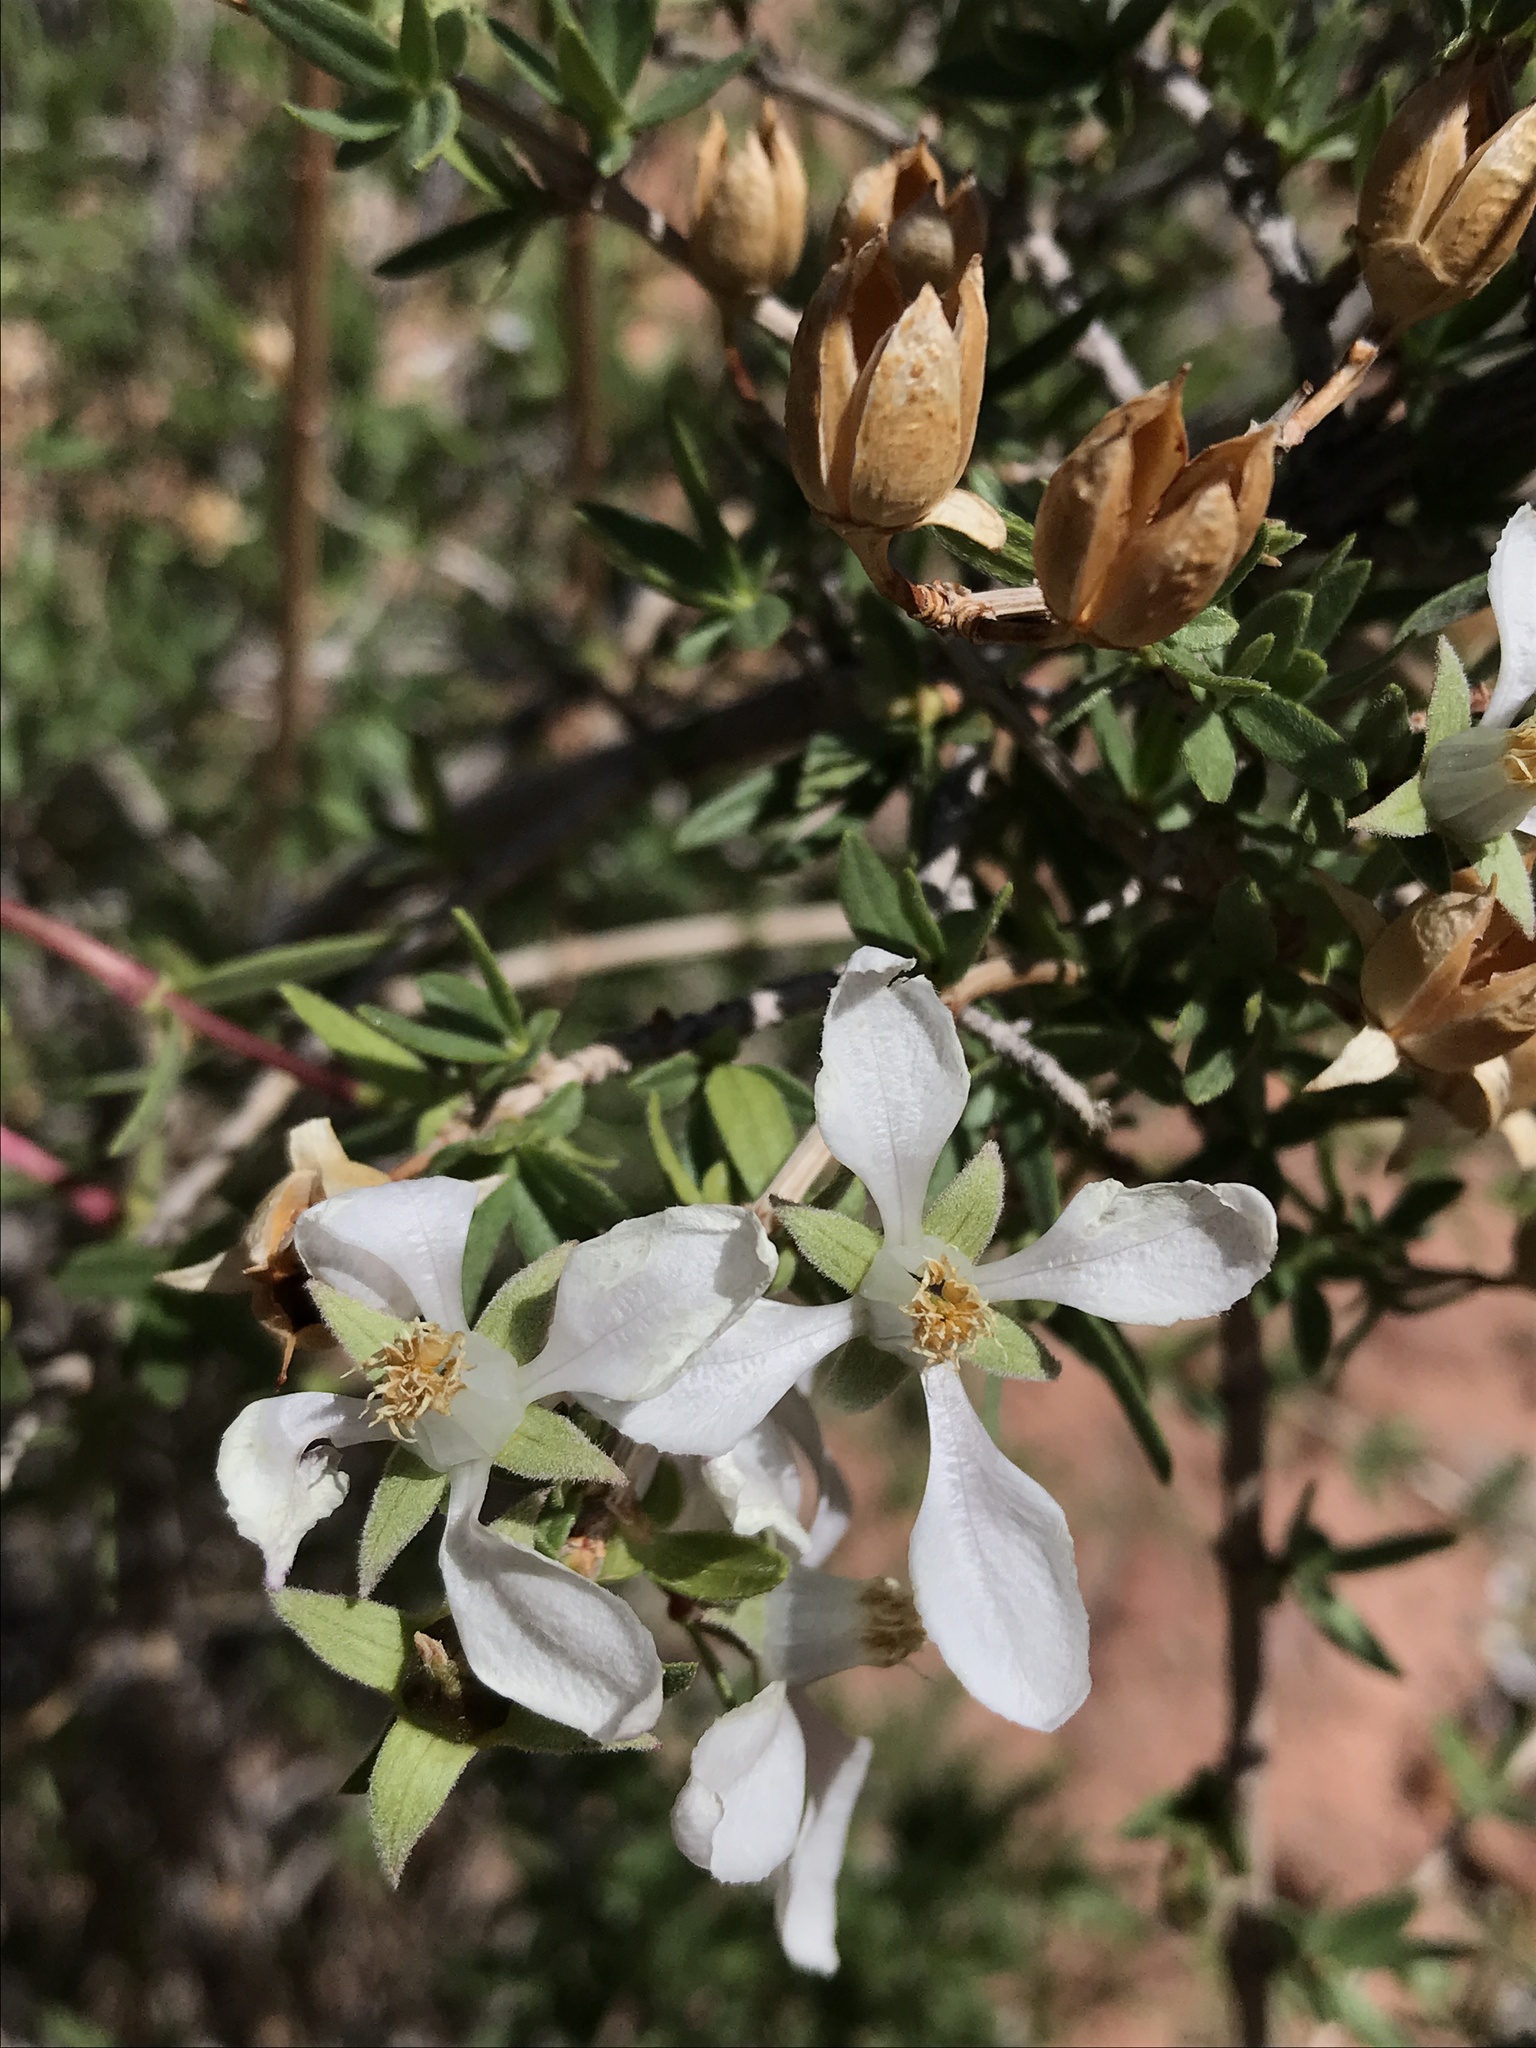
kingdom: Plantae
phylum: Tracheophyta
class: Magnoliopsida
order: Cornales
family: Hydrangeaceae
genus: Fendlera
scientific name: Fendlera rupicola
